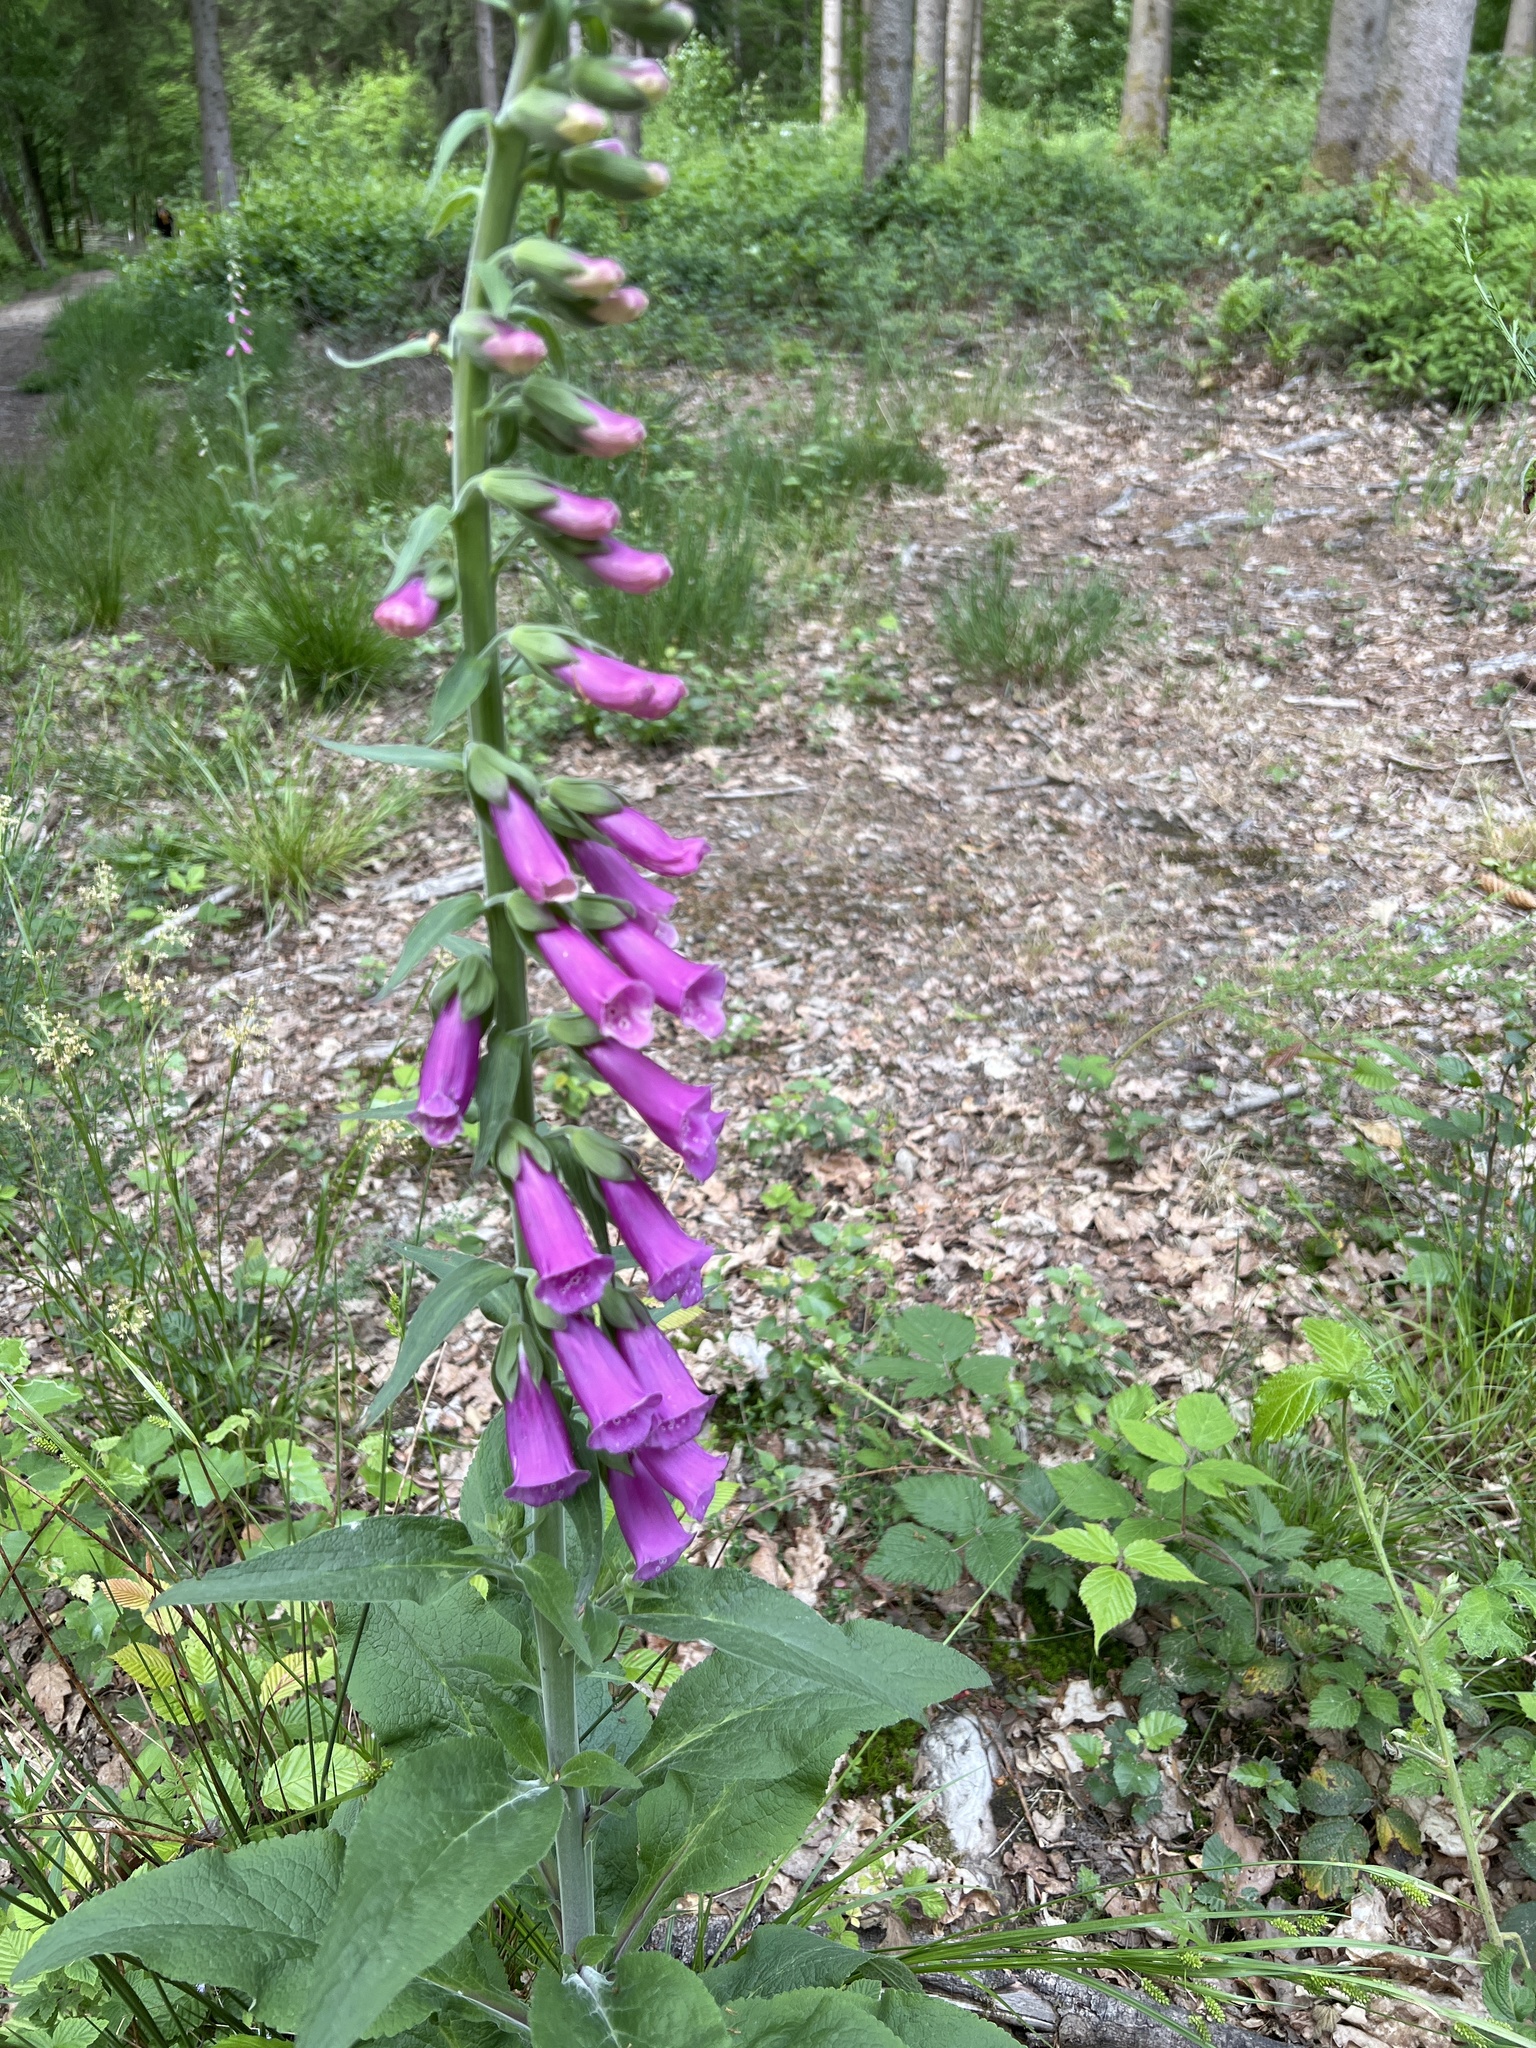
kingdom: Plantae
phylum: Tracheophyta
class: Magnoliopsida
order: Lamiales
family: Plantaginaceae
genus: Digitalis
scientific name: Digitalis purpurea
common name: Foxglove
